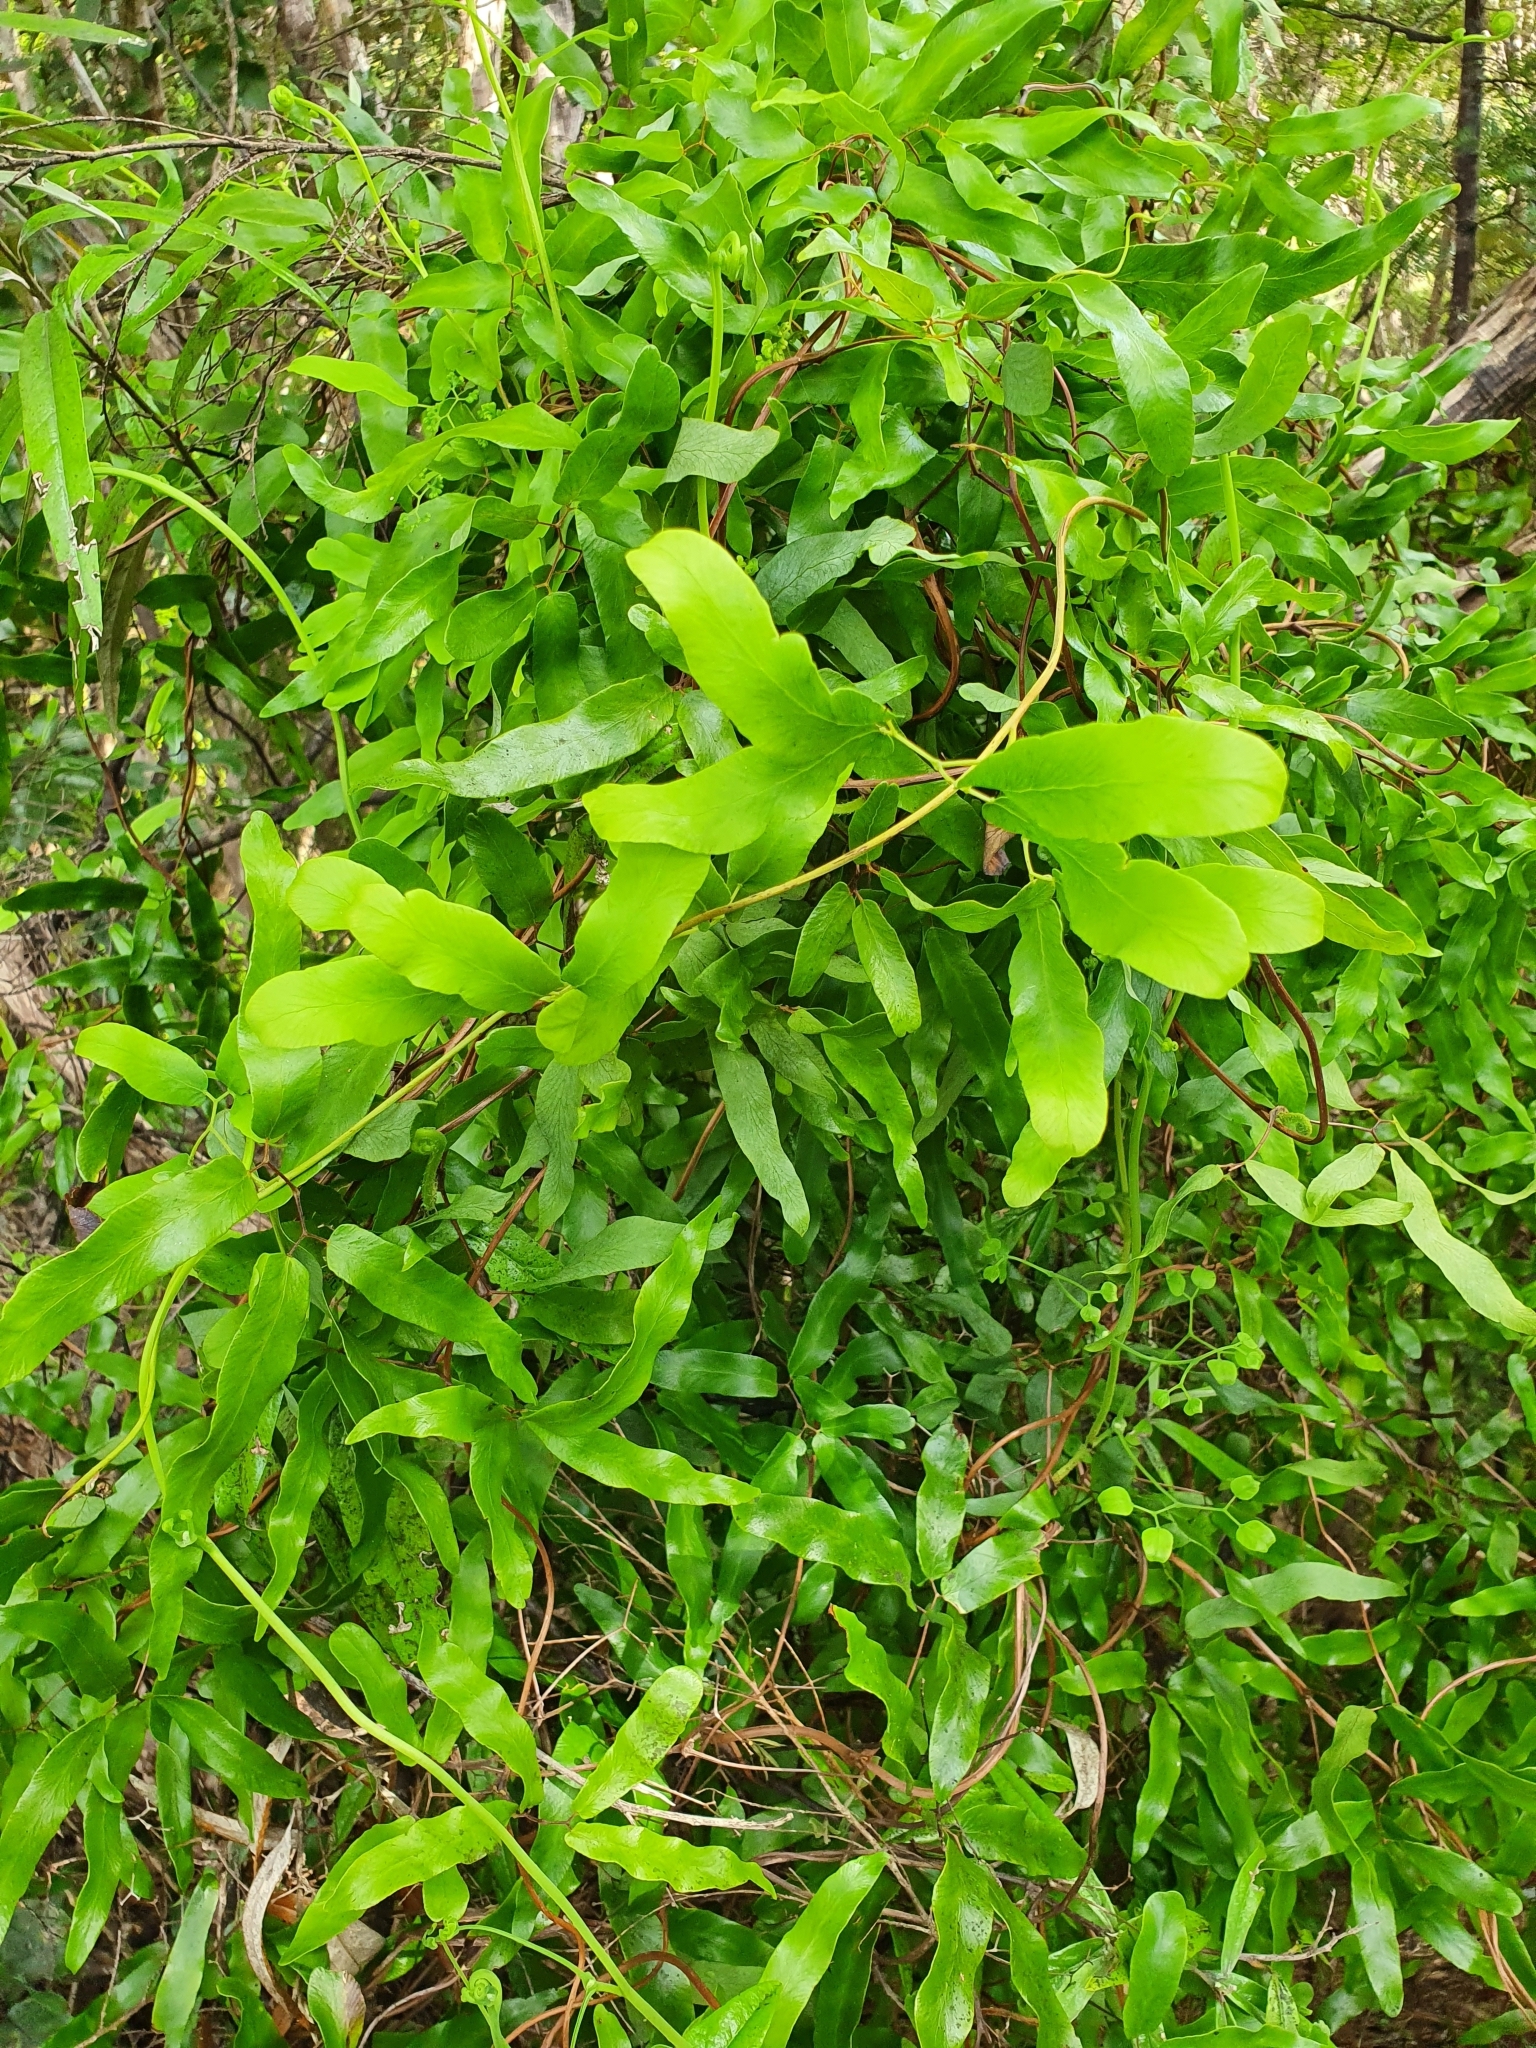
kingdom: Plantae
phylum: Tracheophyta
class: Polypodiopsida
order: Schizaeales
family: Lygodiaceae
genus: Lygodium
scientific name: Lygodium articulatum
